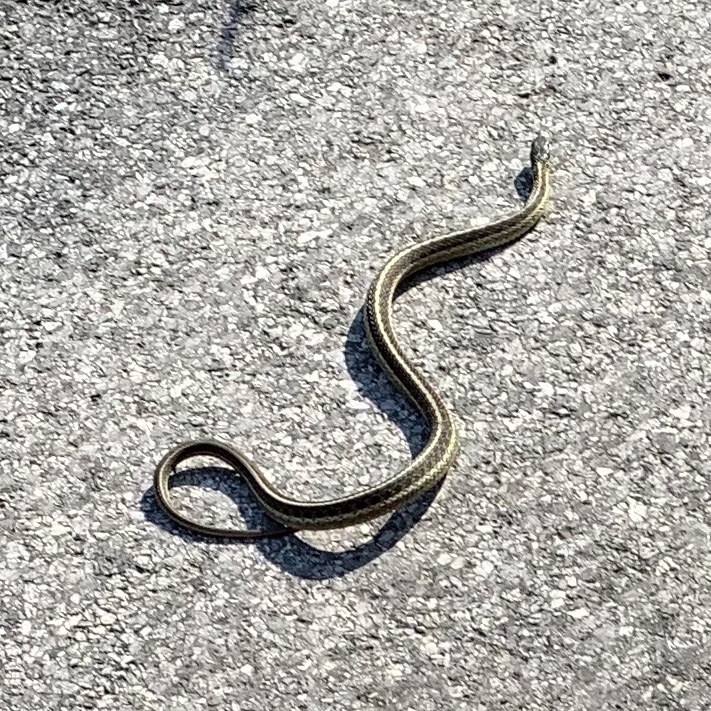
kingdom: Animalia
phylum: Chordata
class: Squamata
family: Colubridae
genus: Thamnophis
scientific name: Thamnophis sirtalis
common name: Common garter snake
